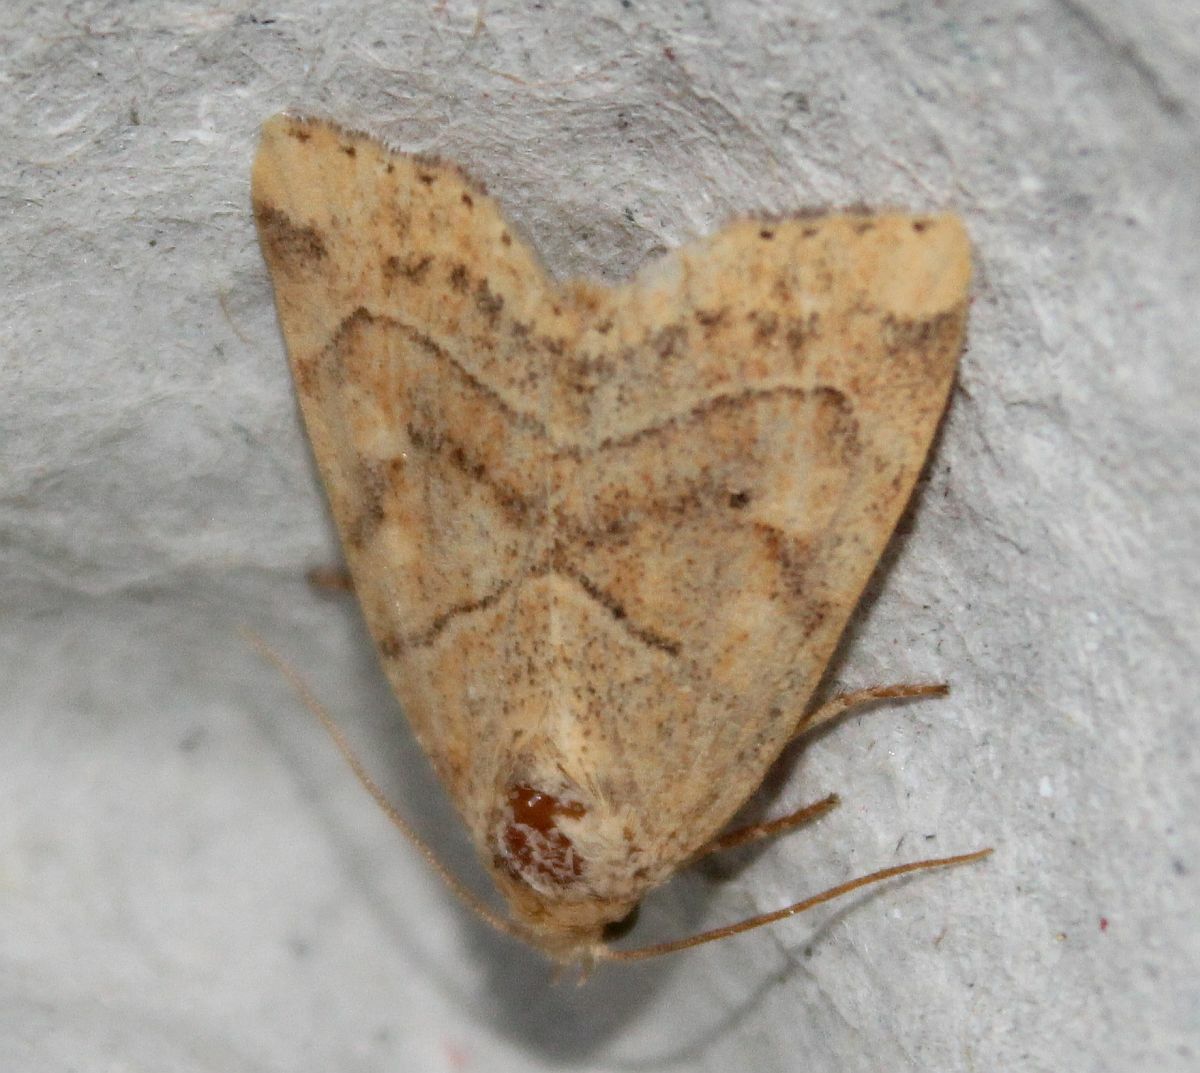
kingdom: Animalia
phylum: Arthropoda
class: Insecta
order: Lepidoptera
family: Noctuidae
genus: Cosmia
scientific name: Cosmia trapezina
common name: Dun-bar
